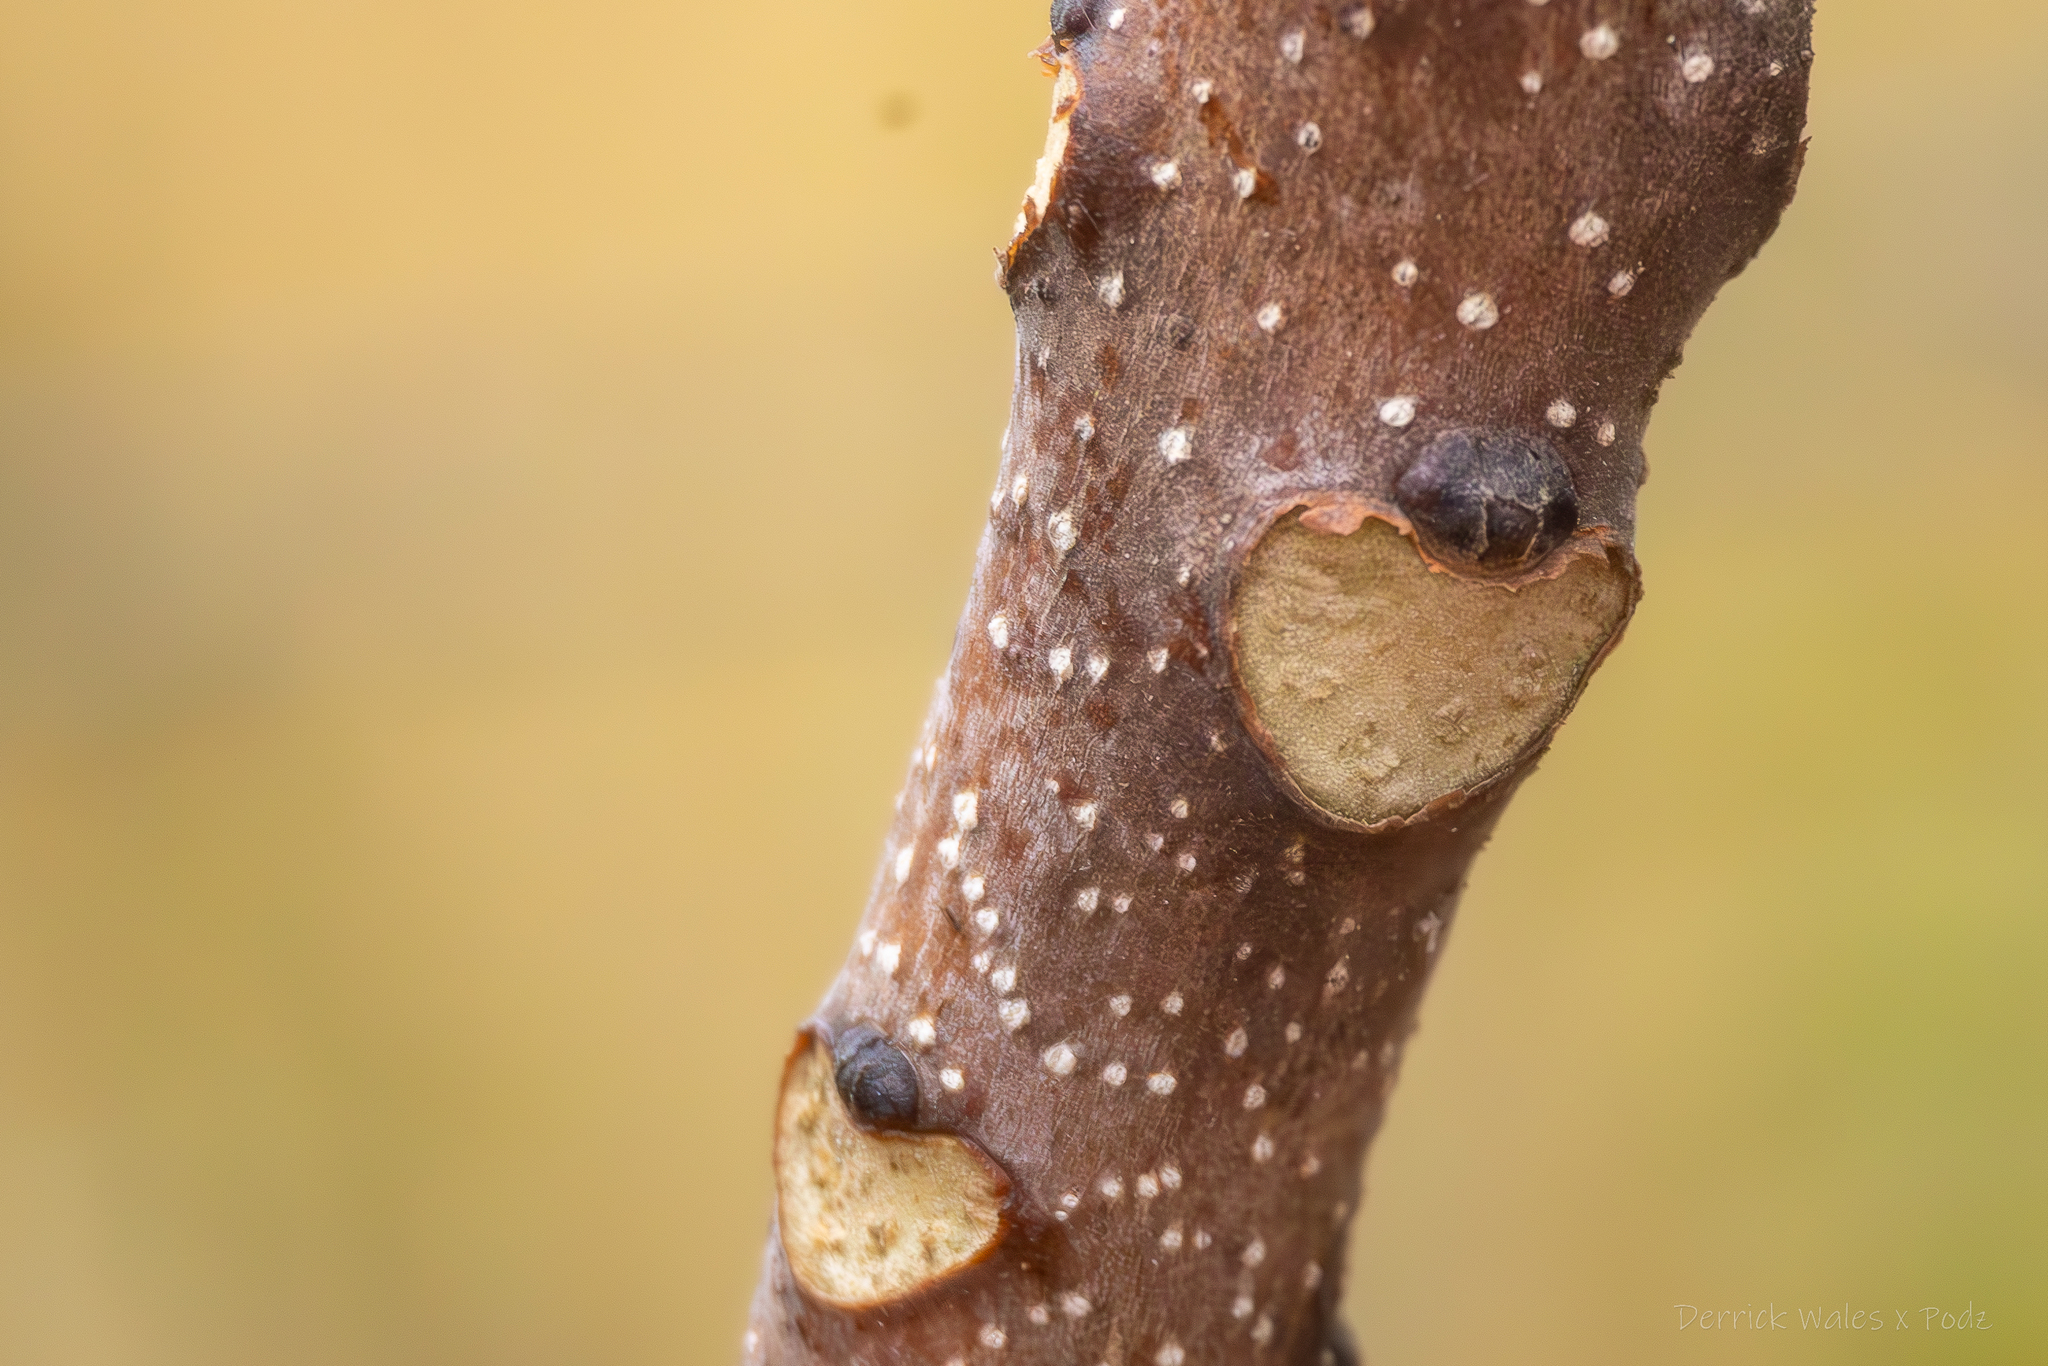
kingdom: Plantae
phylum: Tracheophyta
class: Magnoliopsida
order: Sapindales
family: Simaroubaceae
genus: Ailanthus
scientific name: Ailanthus altissima
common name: Tree-of-heaven
